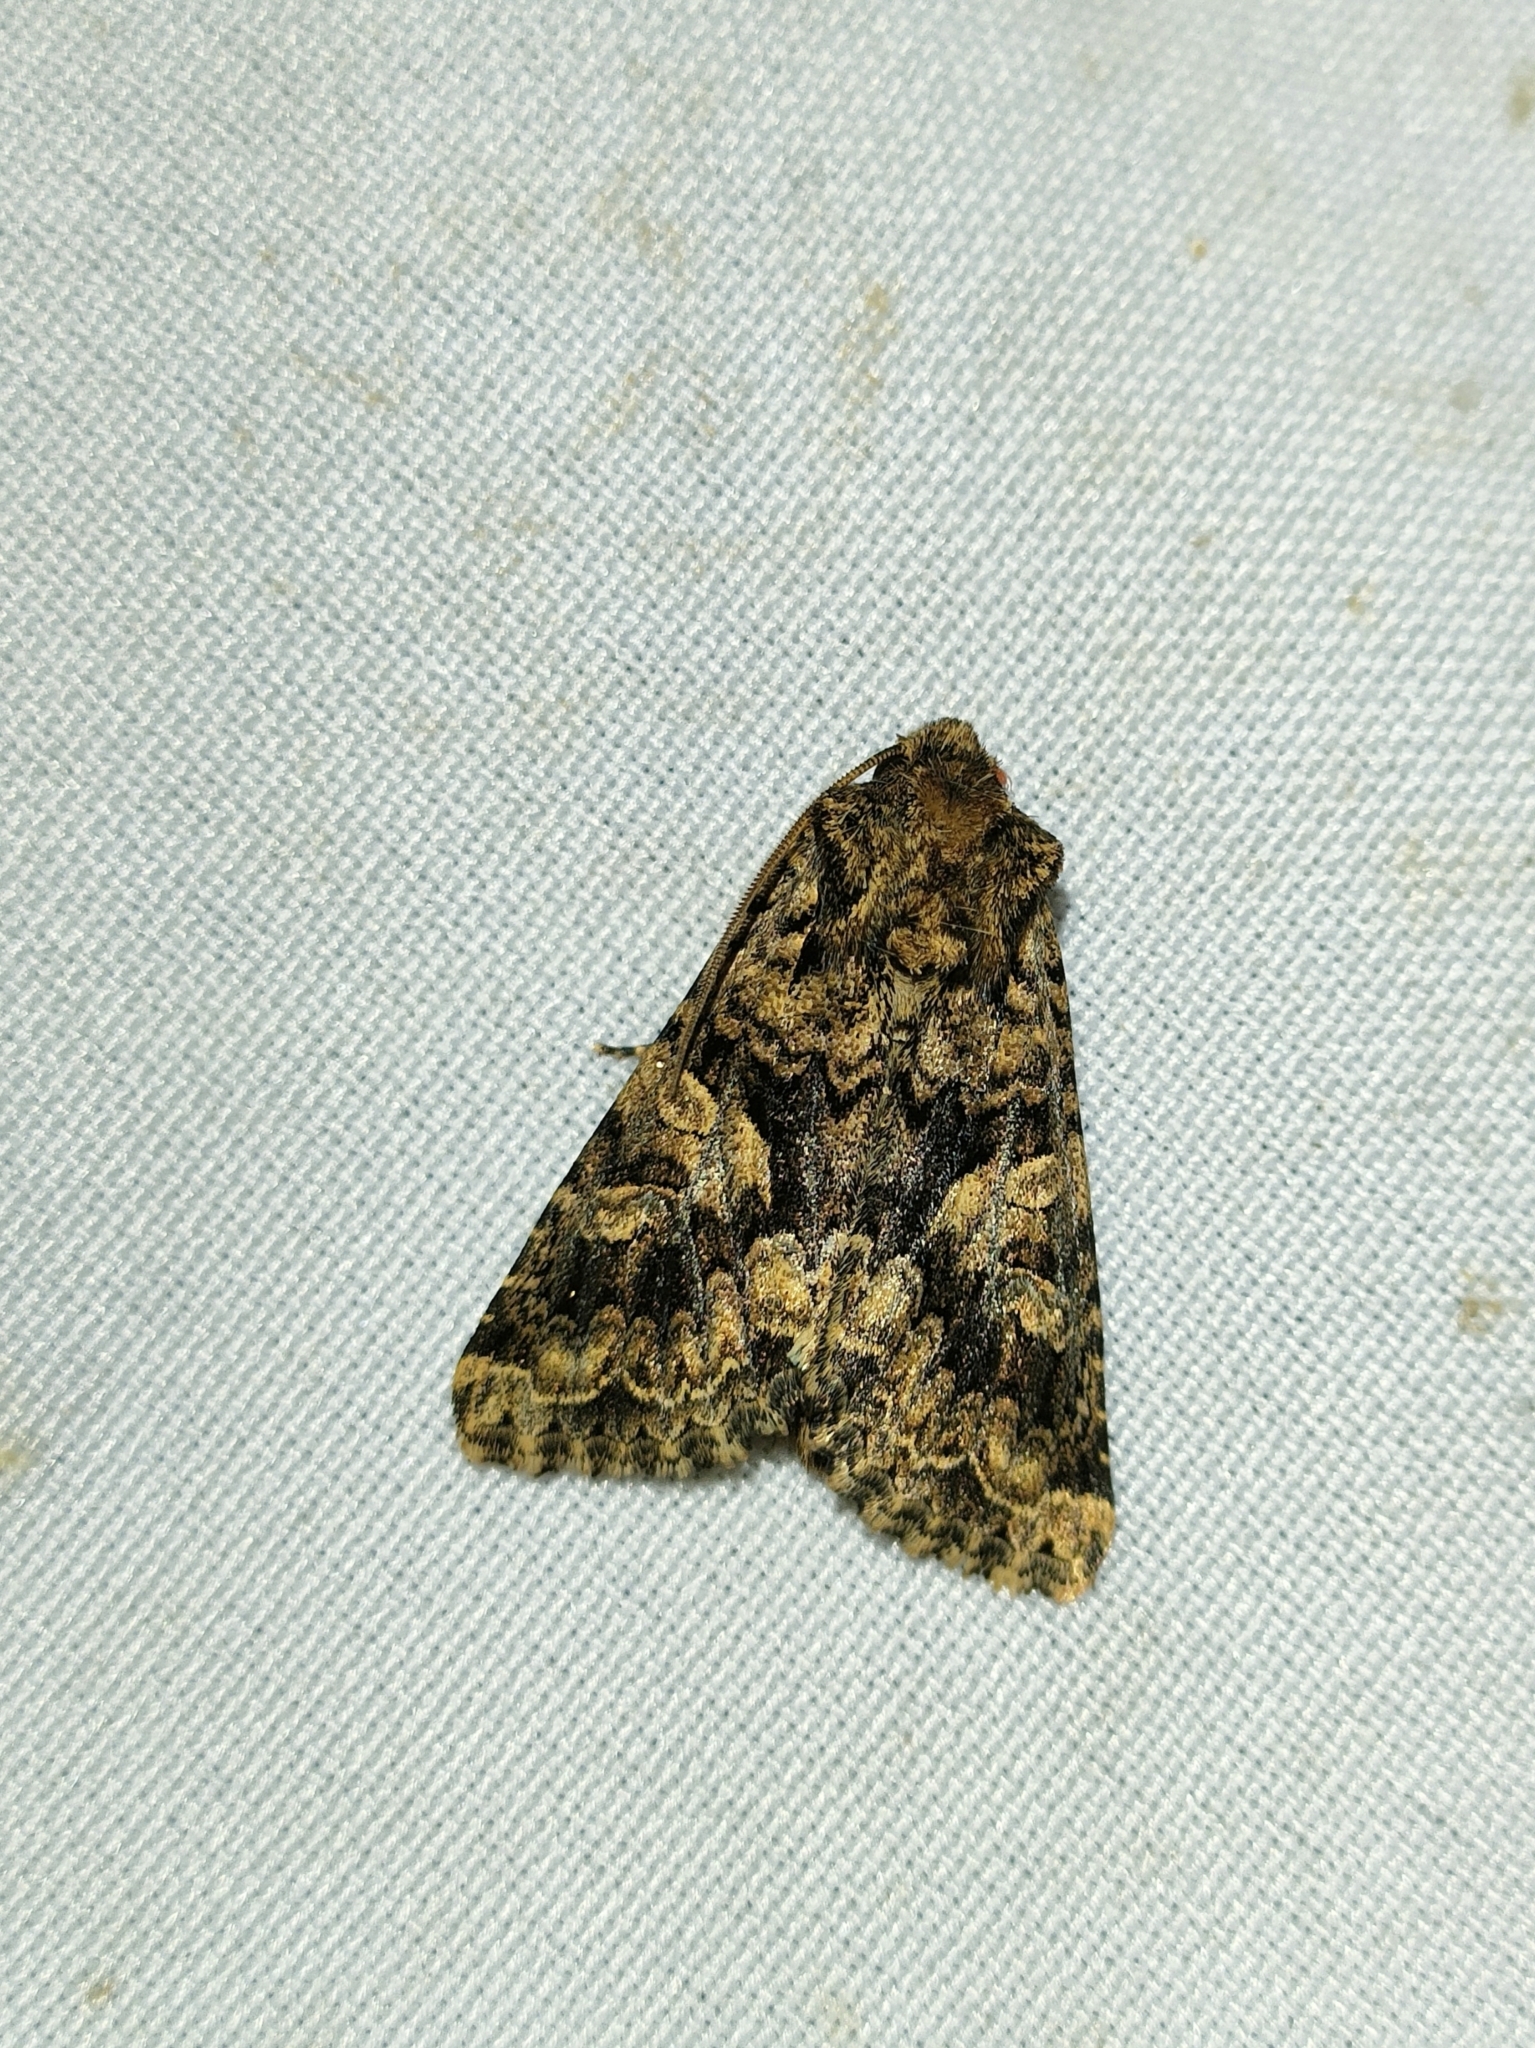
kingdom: Animalia
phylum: Arthropoda
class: Insecta
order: Lepidoptera
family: Noctuidae
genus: Conisania
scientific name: Conisania andalusica
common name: Barrett's marbled coronet
